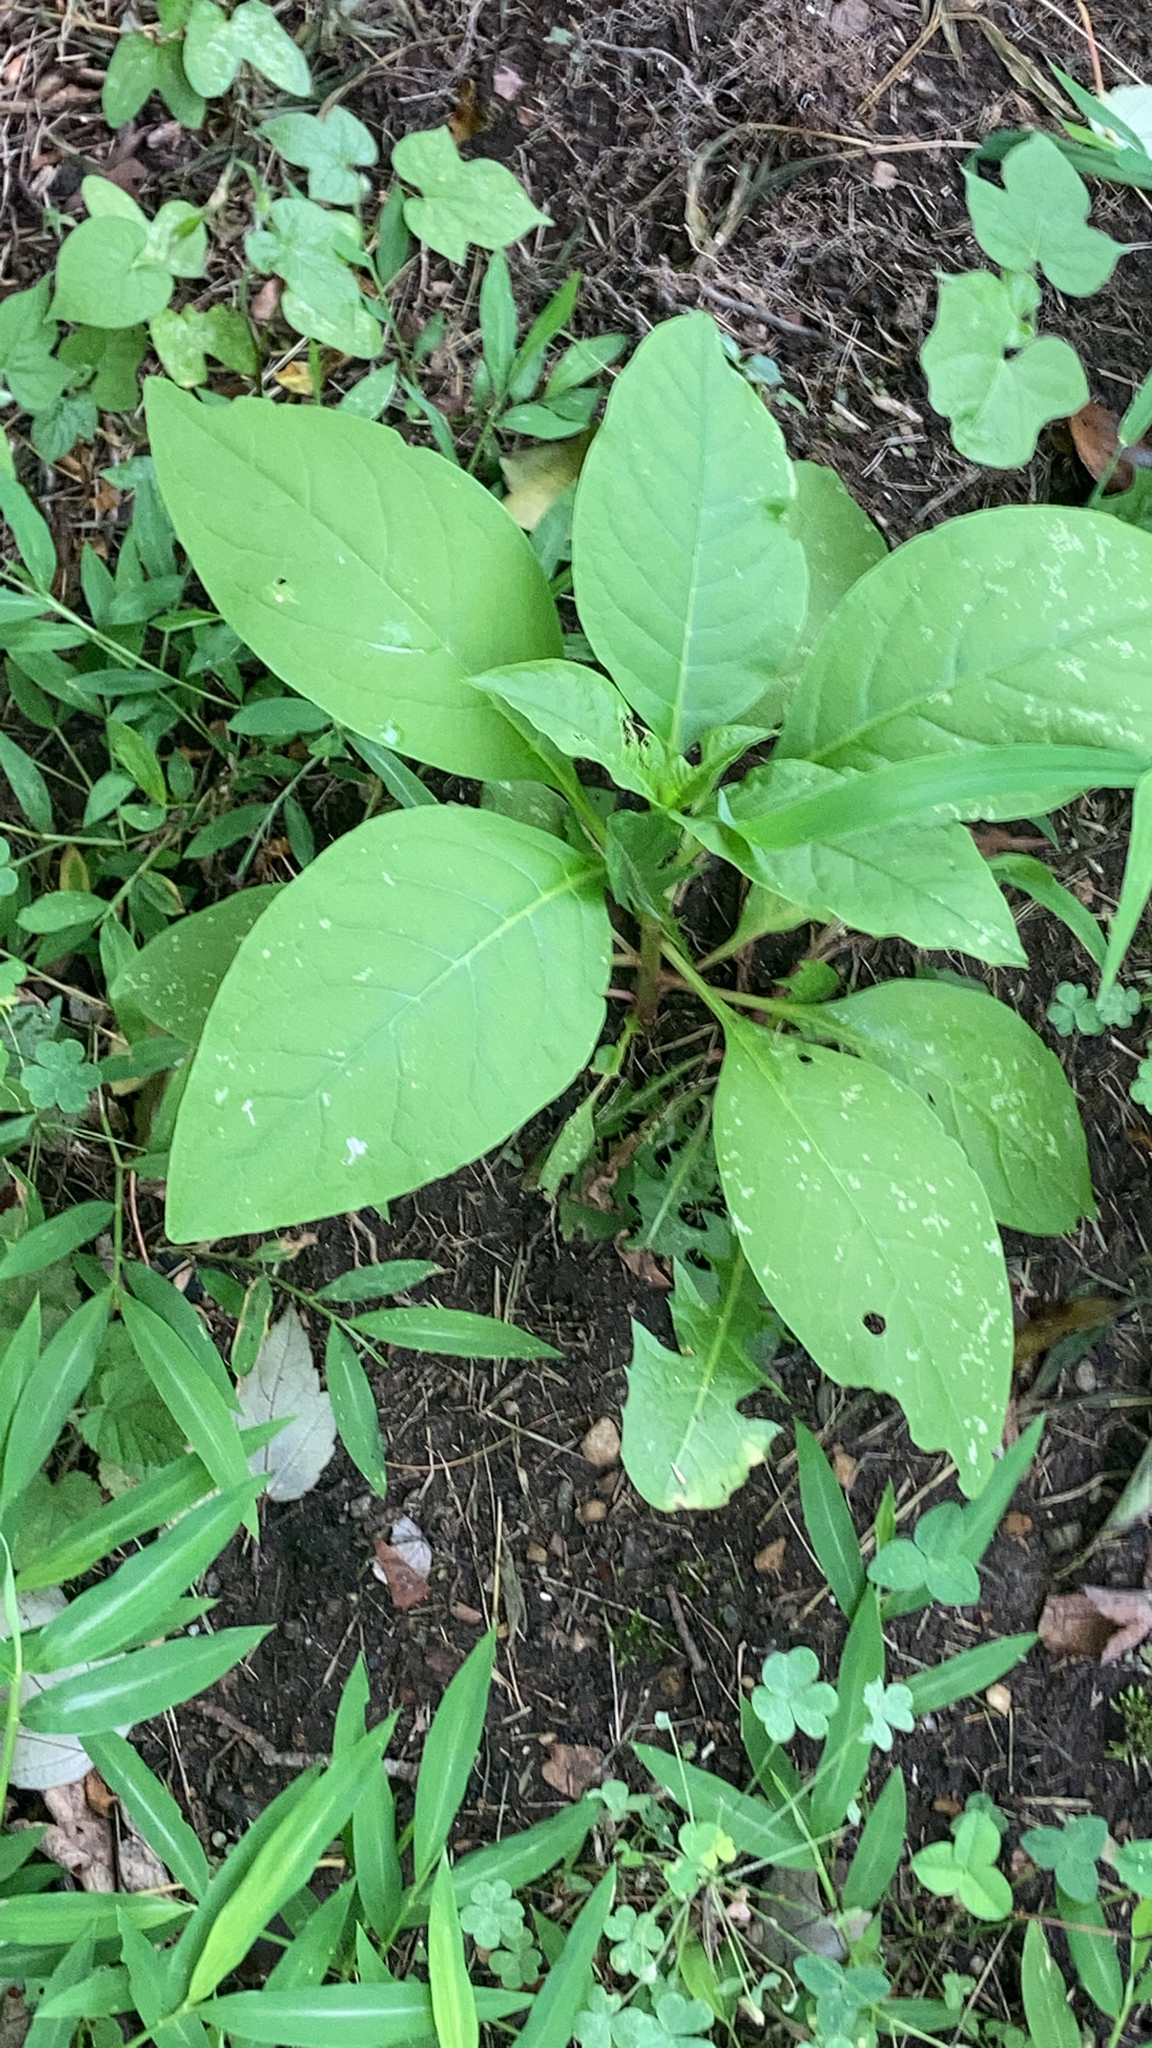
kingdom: Plantae
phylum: Tracheophyta
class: Magnoliopsida
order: Caryophyllales
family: Phytolaccaceae
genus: Phytolacca
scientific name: Phytolacca americana
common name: American pokeweed
